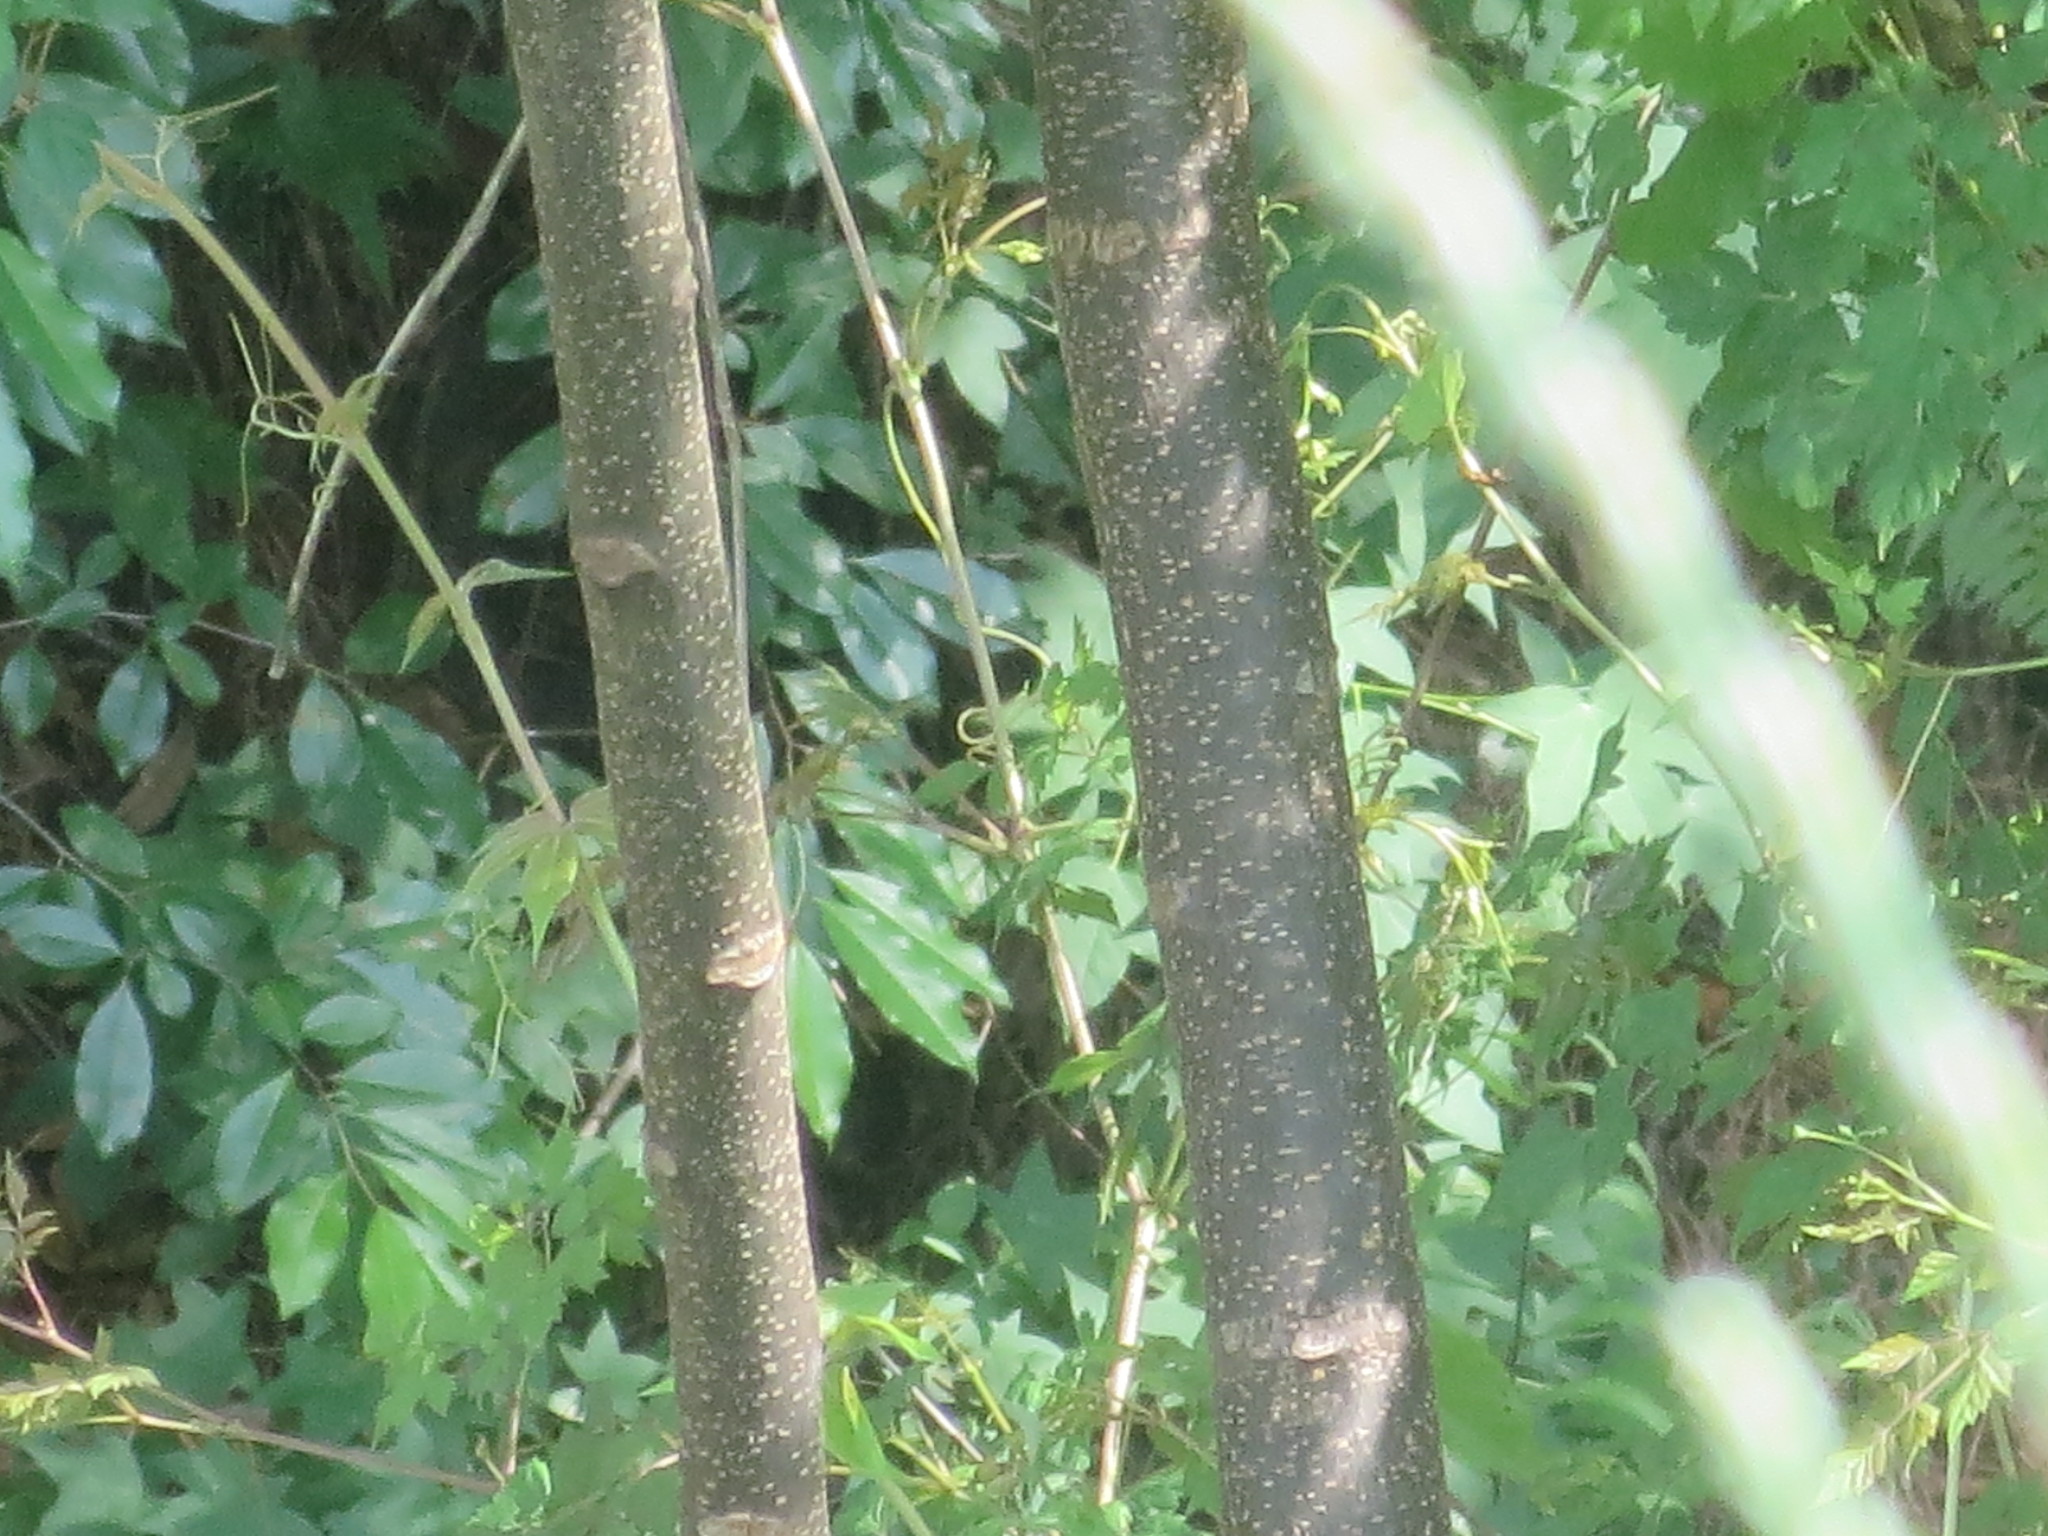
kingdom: Plantae
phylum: Tracheophyta
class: Magnoliopsida
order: Sapindales
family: Meliaceae
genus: Melia
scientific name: Melia azedarach
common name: Chinaberrytree
